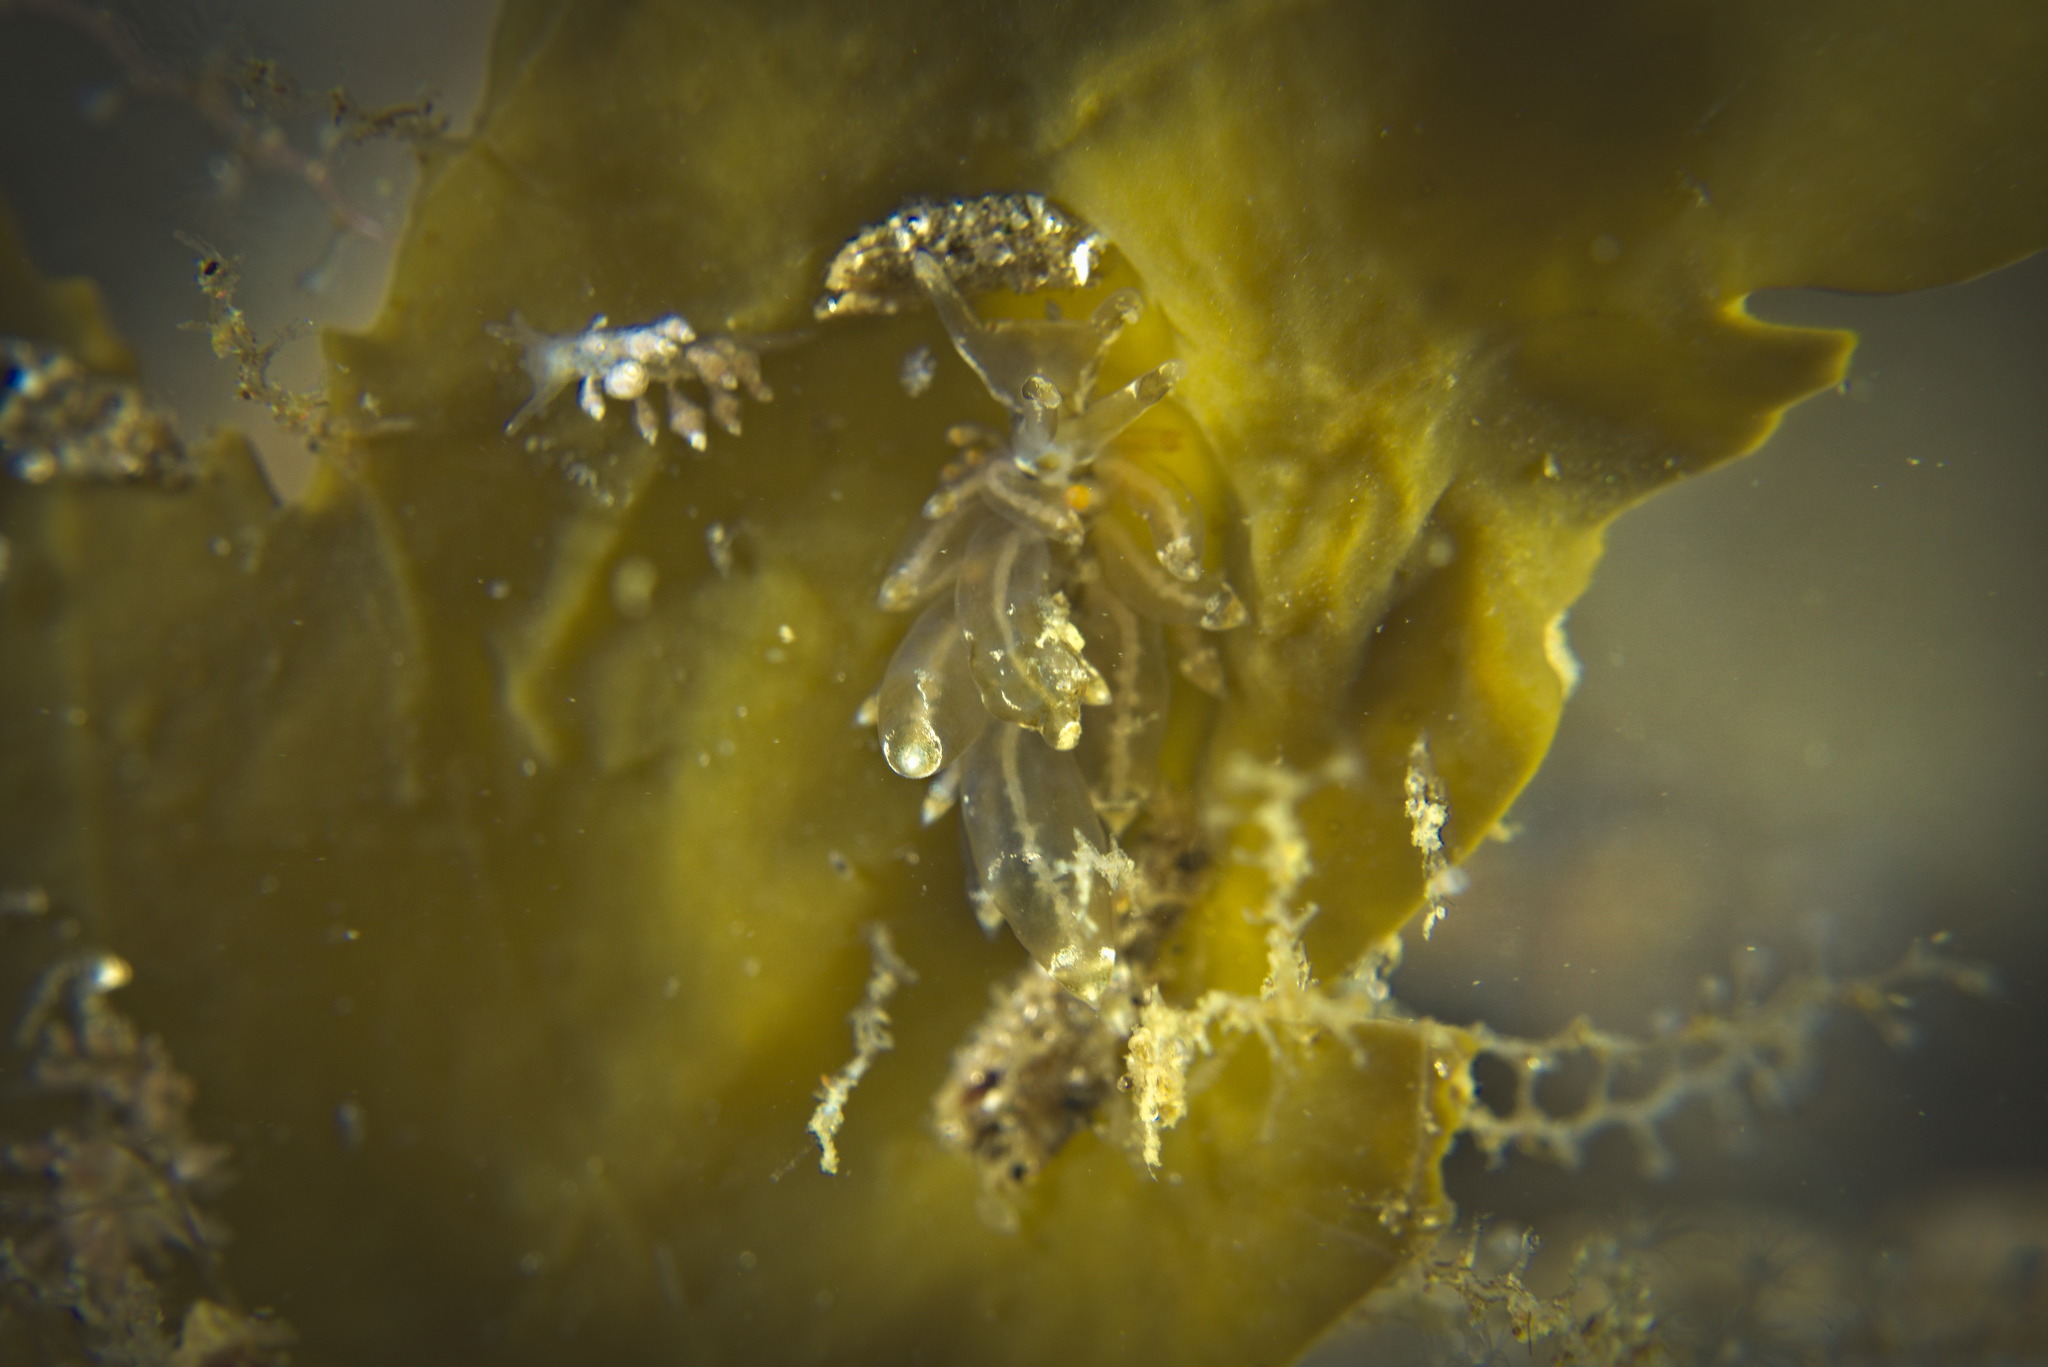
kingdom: Animalia
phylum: Mollusca
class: Gastropoda
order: Nudibranchia
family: Eubranchidae
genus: Amphorina
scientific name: Amphorina viriola
